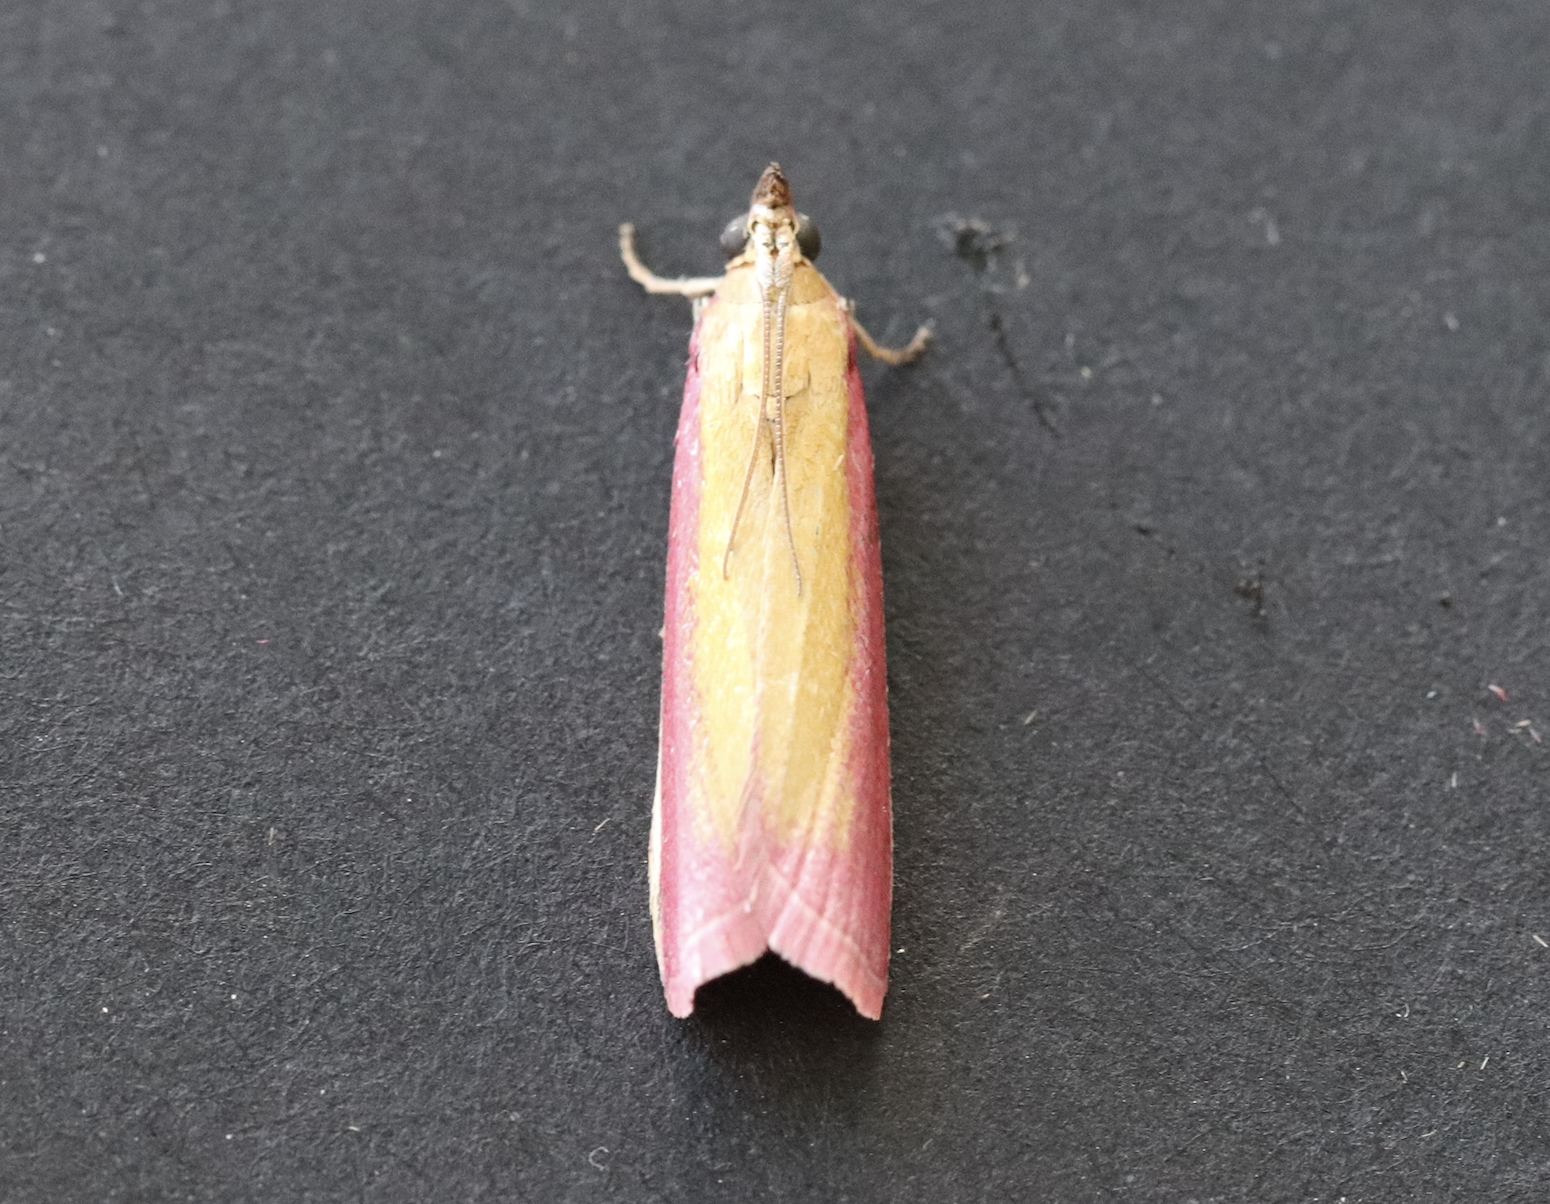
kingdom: Animalia
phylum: Arthropoda
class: Insecta
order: Lepidoptera
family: Pyralidae
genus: Oncocera
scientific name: Oncocera semirubella
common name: Rosy-striped knot-horn
